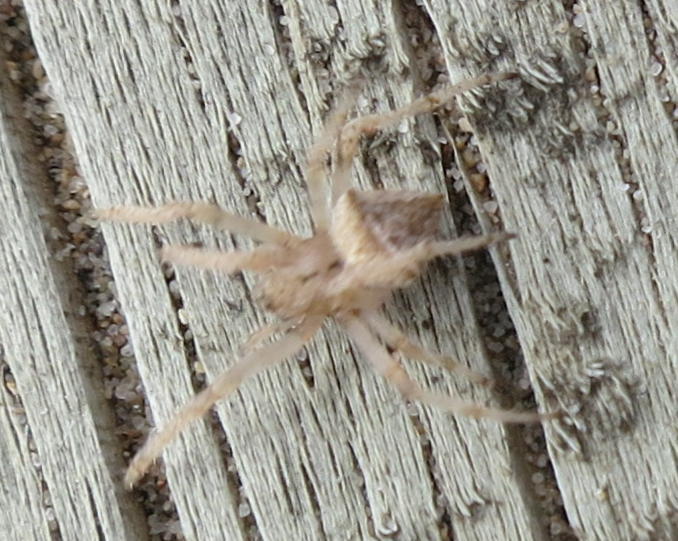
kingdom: Animalia
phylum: Arthropoda
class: Arachnida
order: Araneae
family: Araneidae
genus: Novakiella
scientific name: Novakiella trituberculosa
